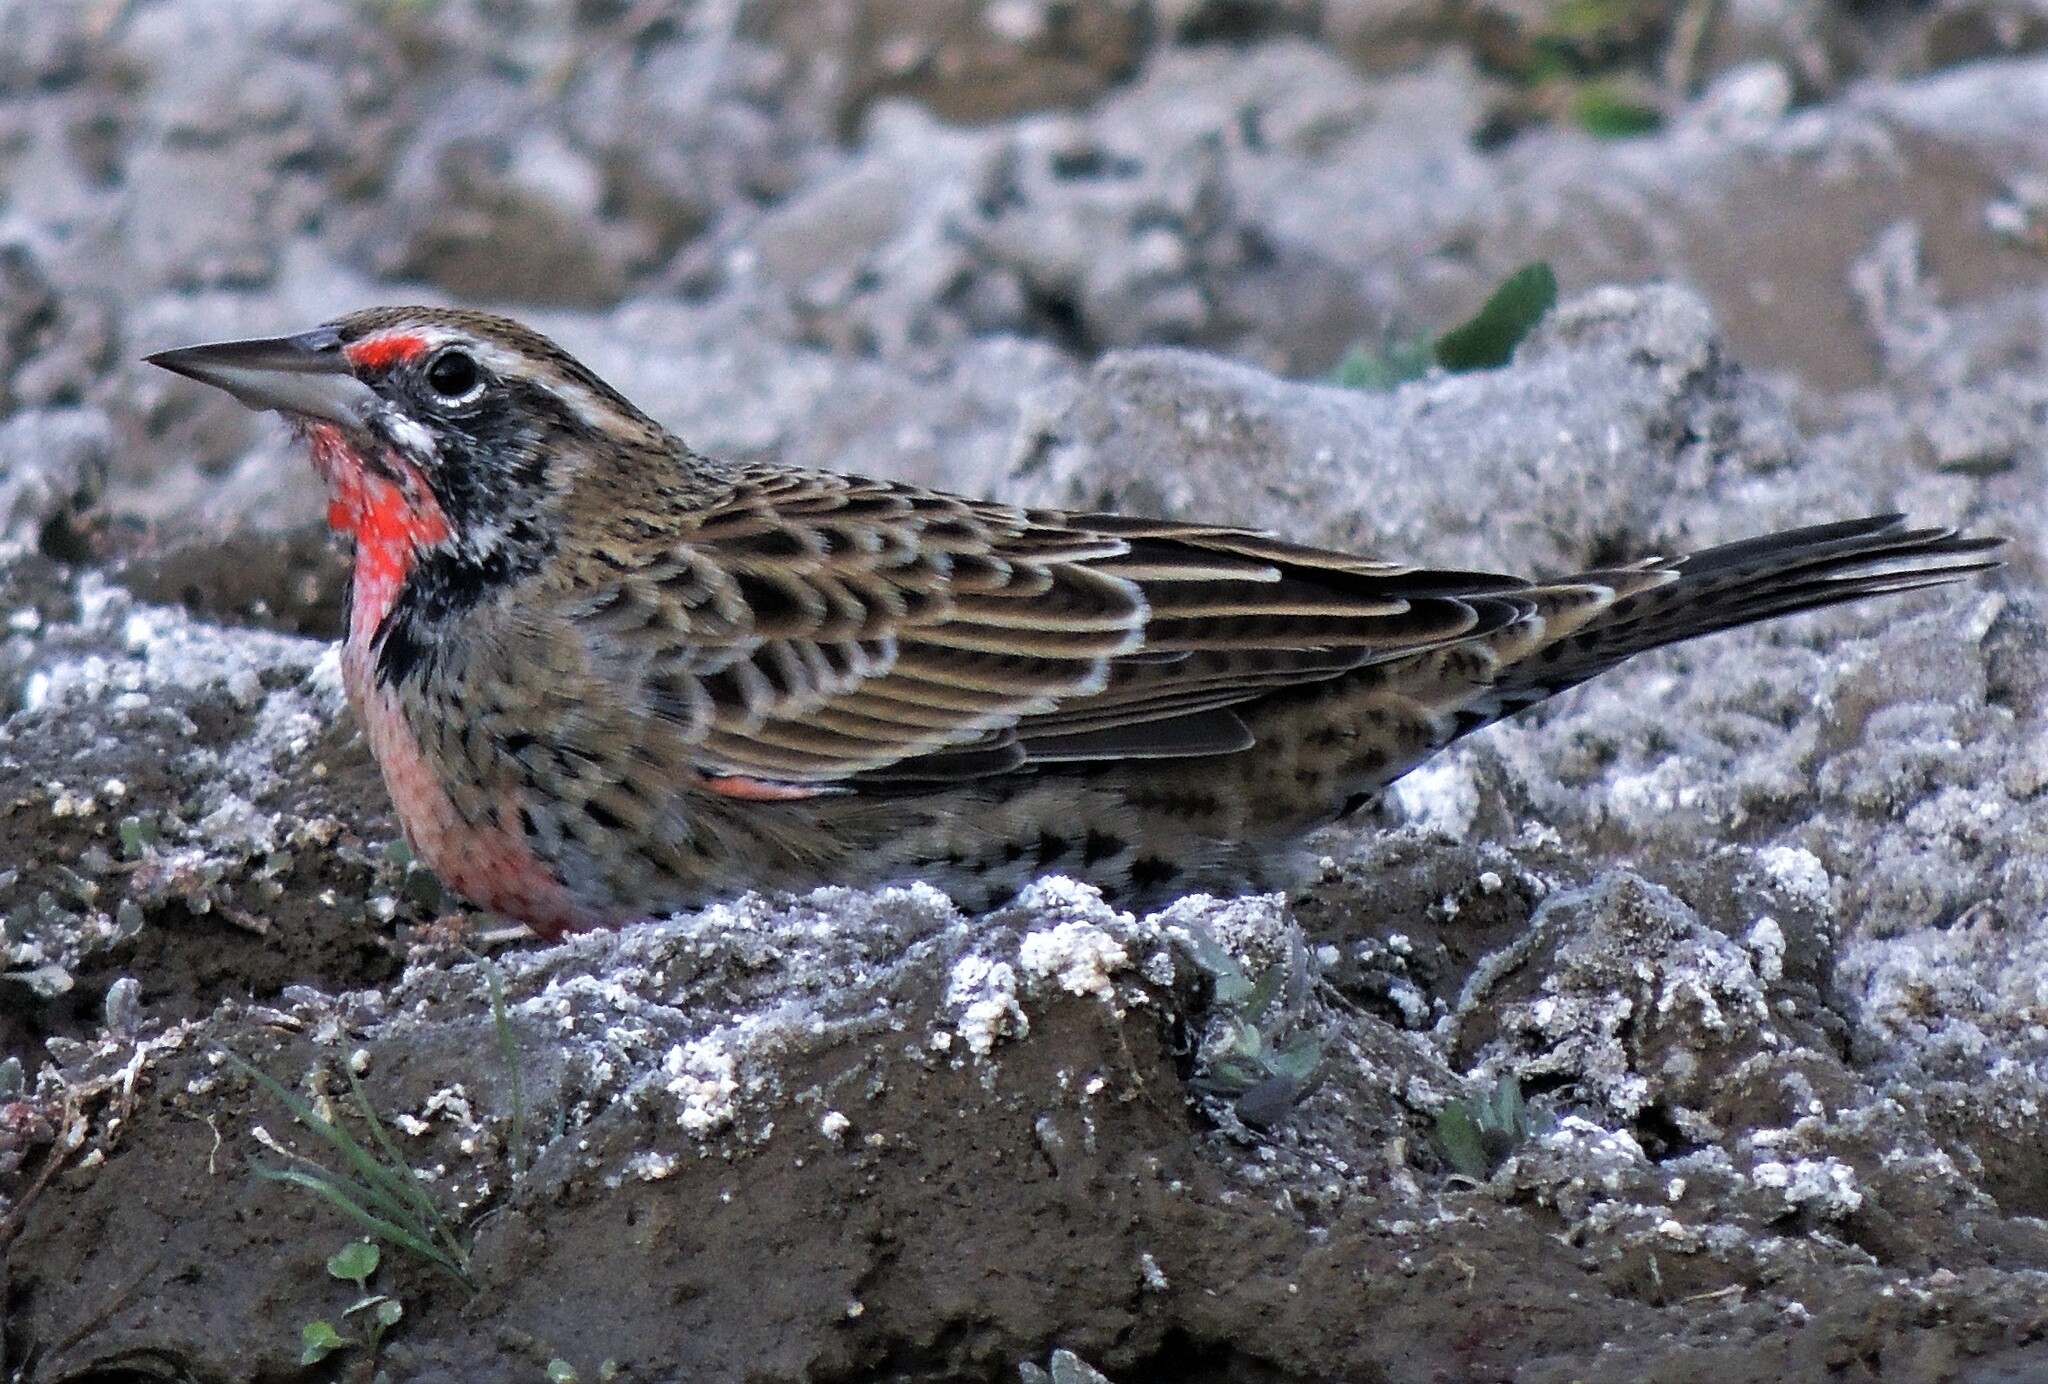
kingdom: Animalia
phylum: Chordata
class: Aves
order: Passeriformes
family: Icteridae
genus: Sturnella
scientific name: Sturnella loyca
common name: Long-tailed meadowlark
